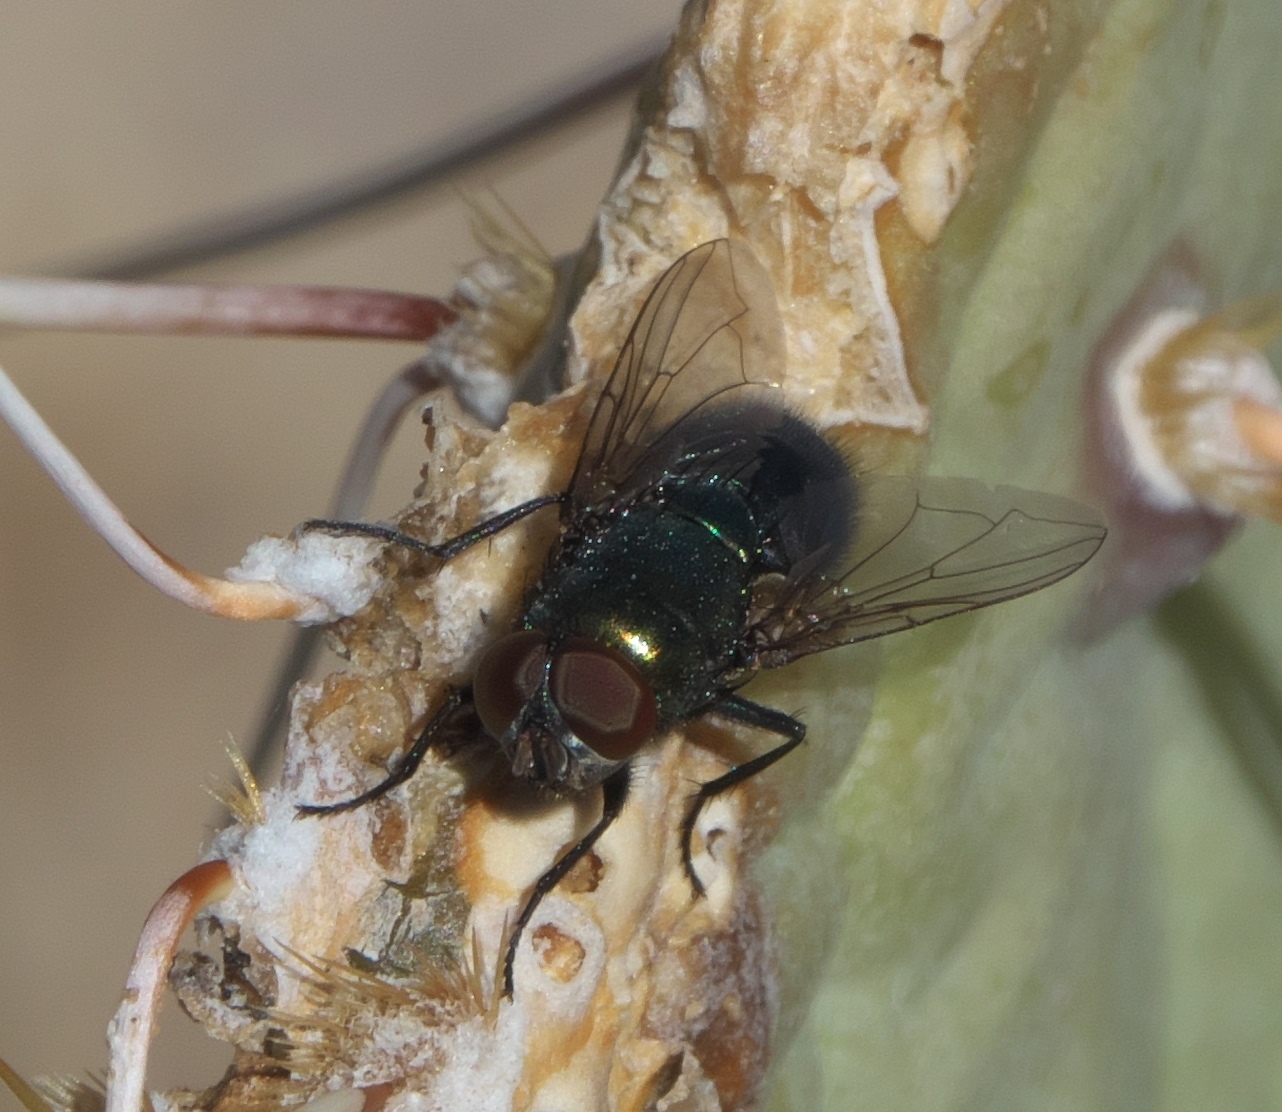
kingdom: Animalia
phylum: Arthropoda
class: Insecta
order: Diptera
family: Calliphoridae
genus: Phormia
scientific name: Phormia regina
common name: Black blow fly
